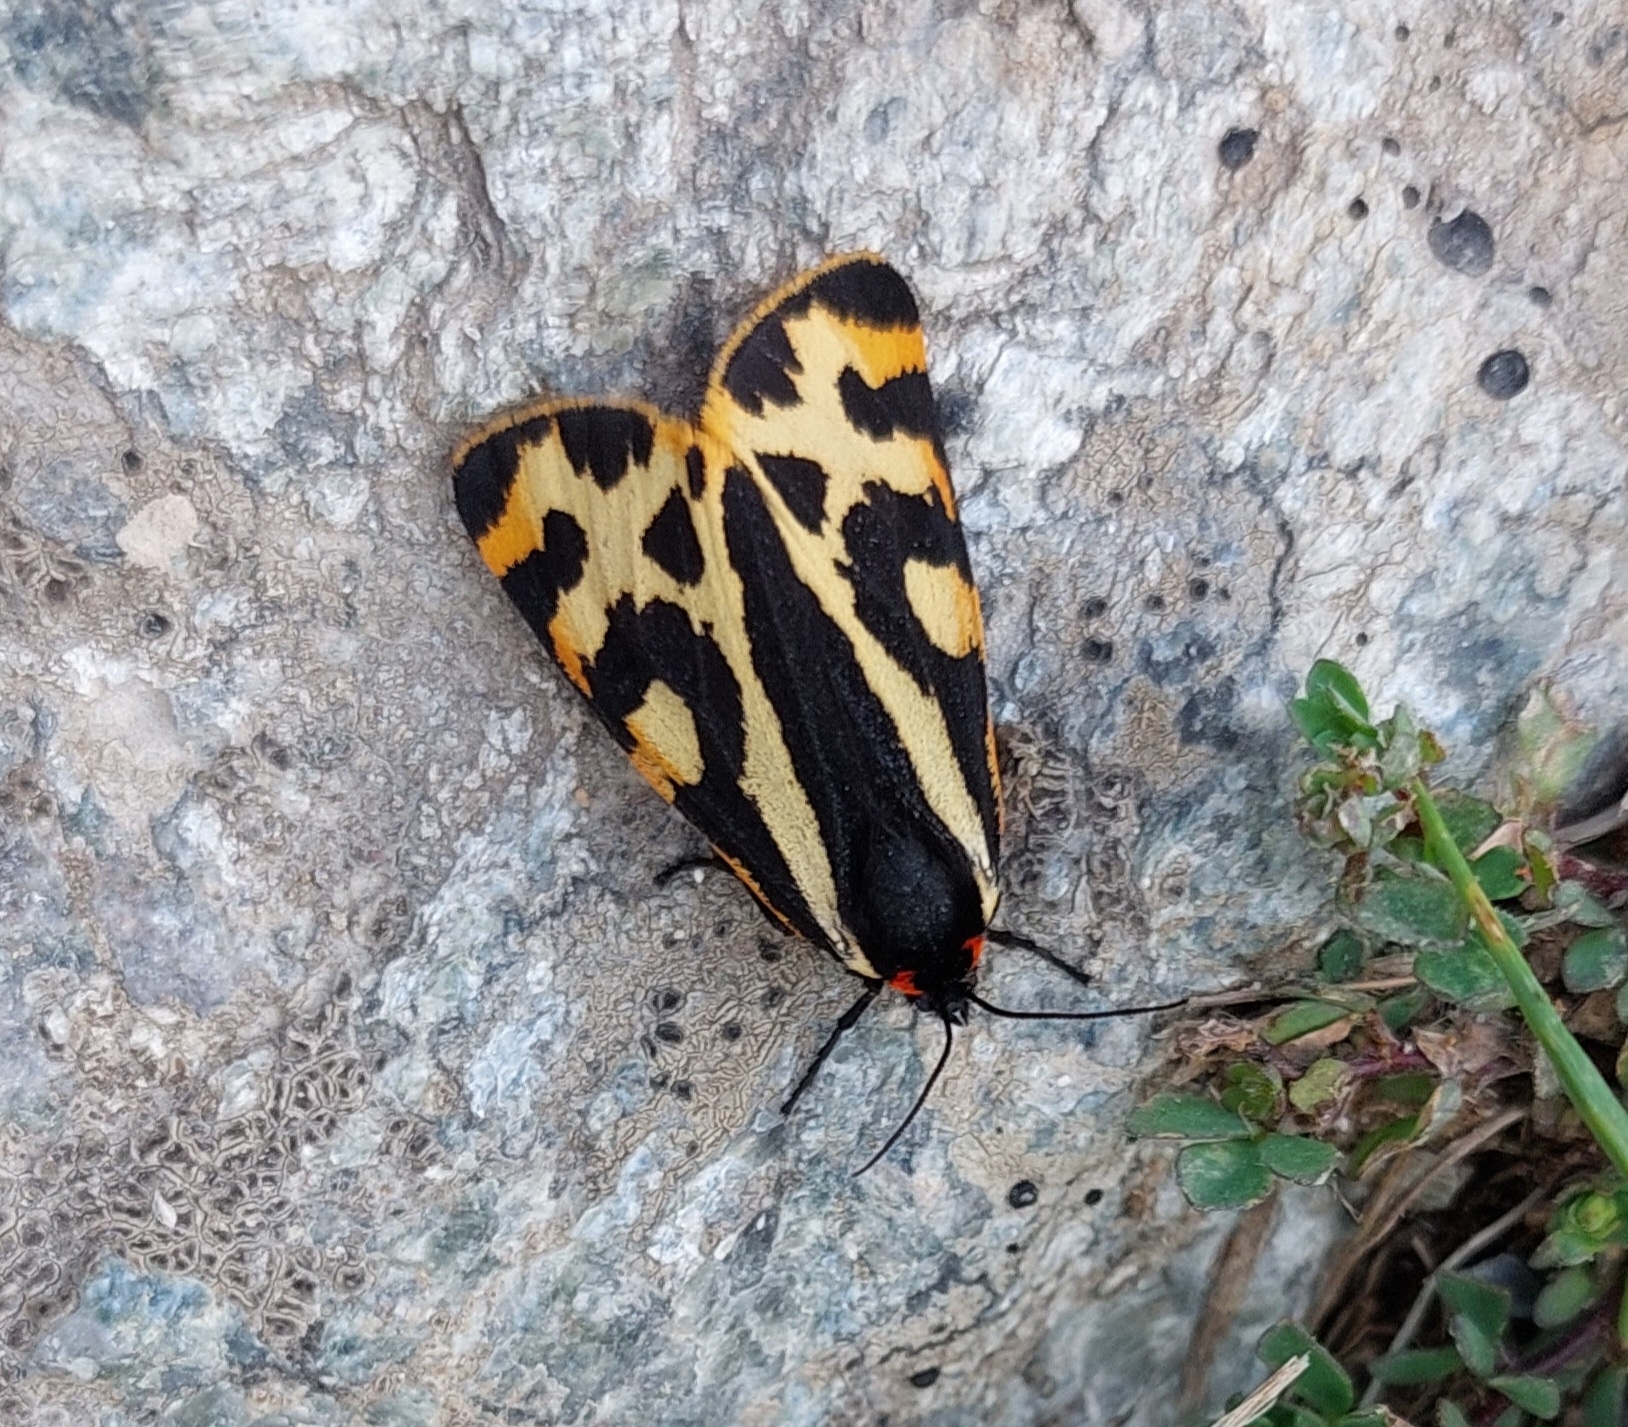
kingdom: Animalia
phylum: Arthropoda
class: Insecta
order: Lepidoptera
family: Erebidae
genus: Parasemia
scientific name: Parasemia plantaginis
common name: Wood tiger
